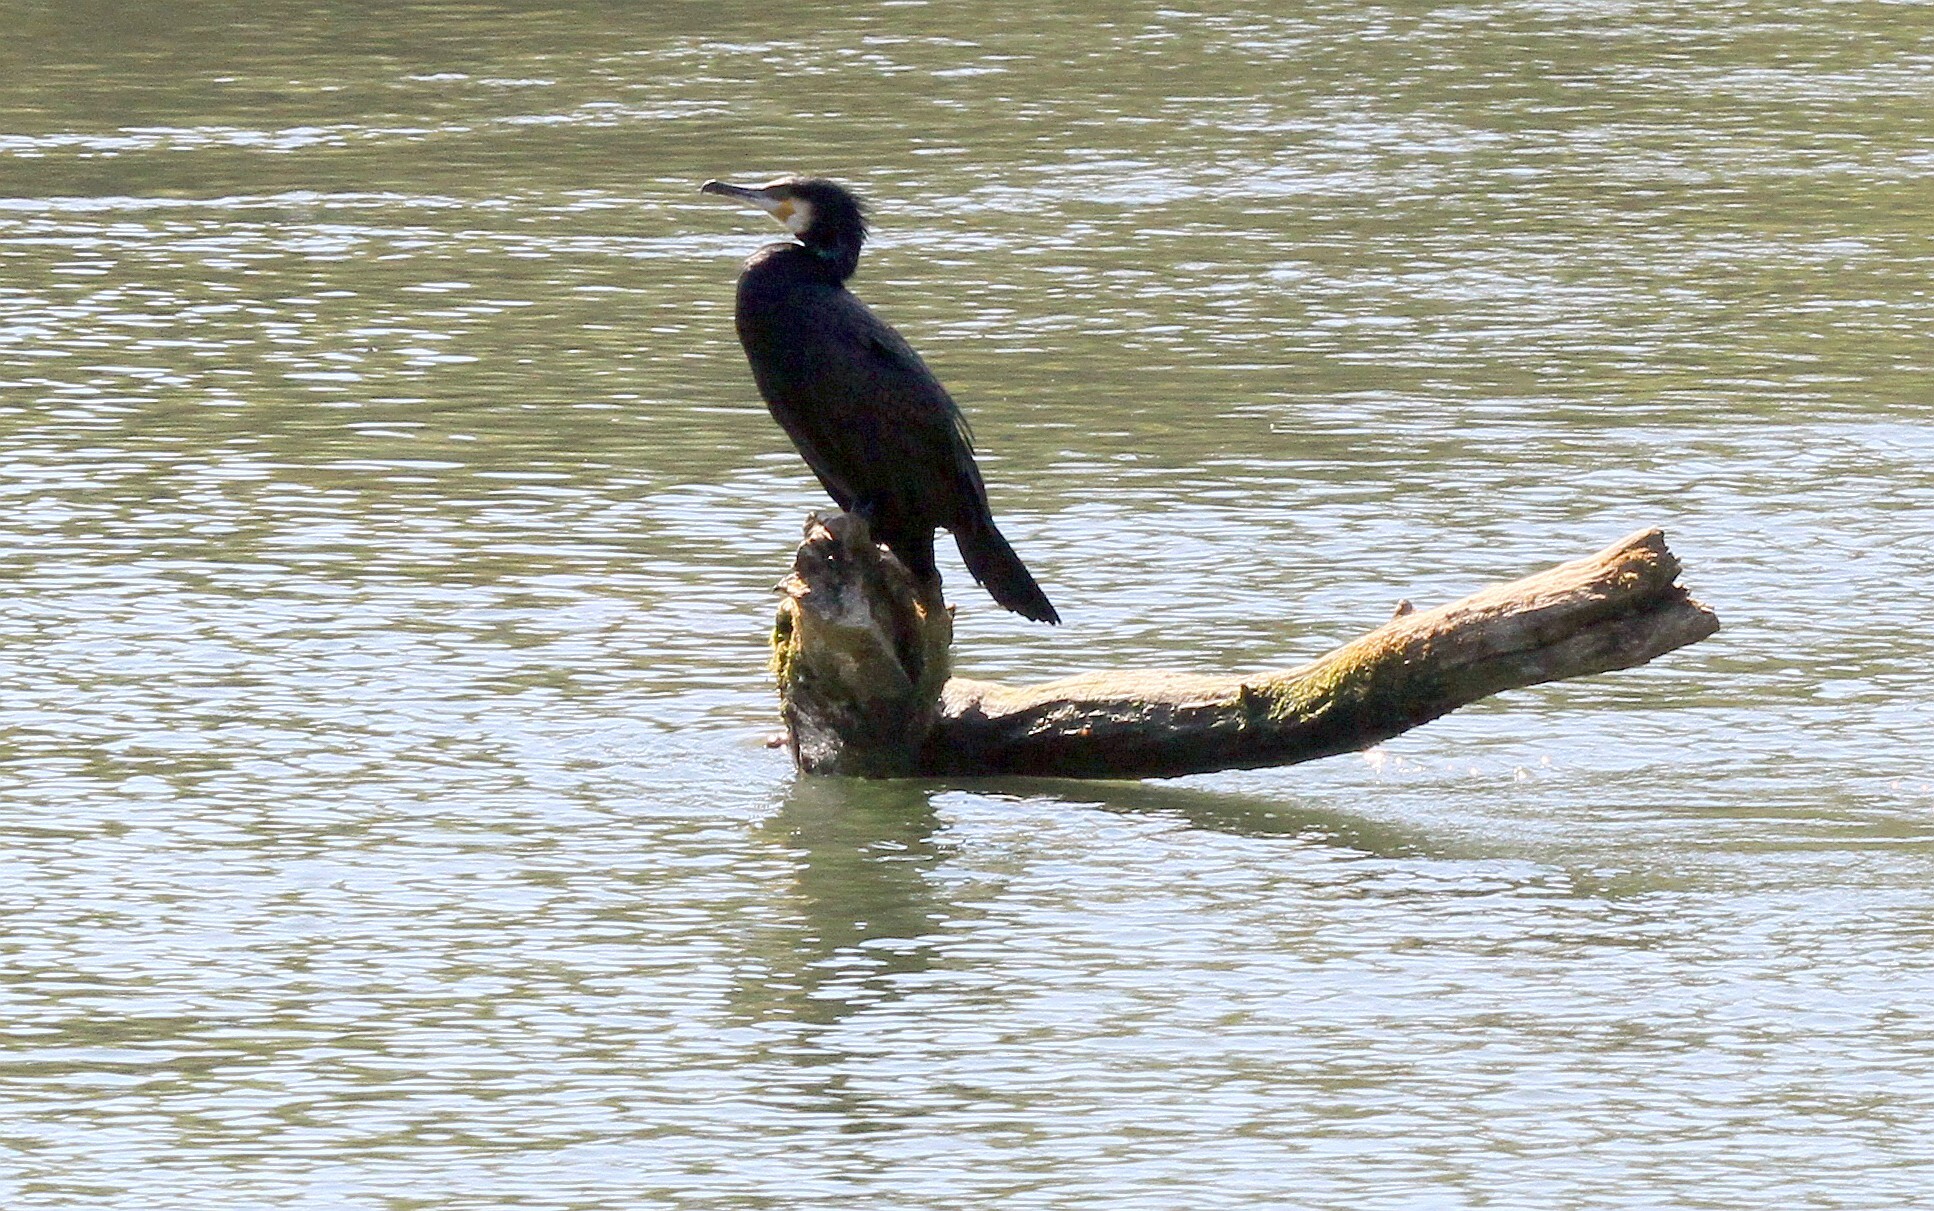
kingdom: Animalia
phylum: Chordata
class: Aves
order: Suliformes
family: Phalacrocoracidae
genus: Phalacrocorax
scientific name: Phalacrocorax carbo
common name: Great cormorant
